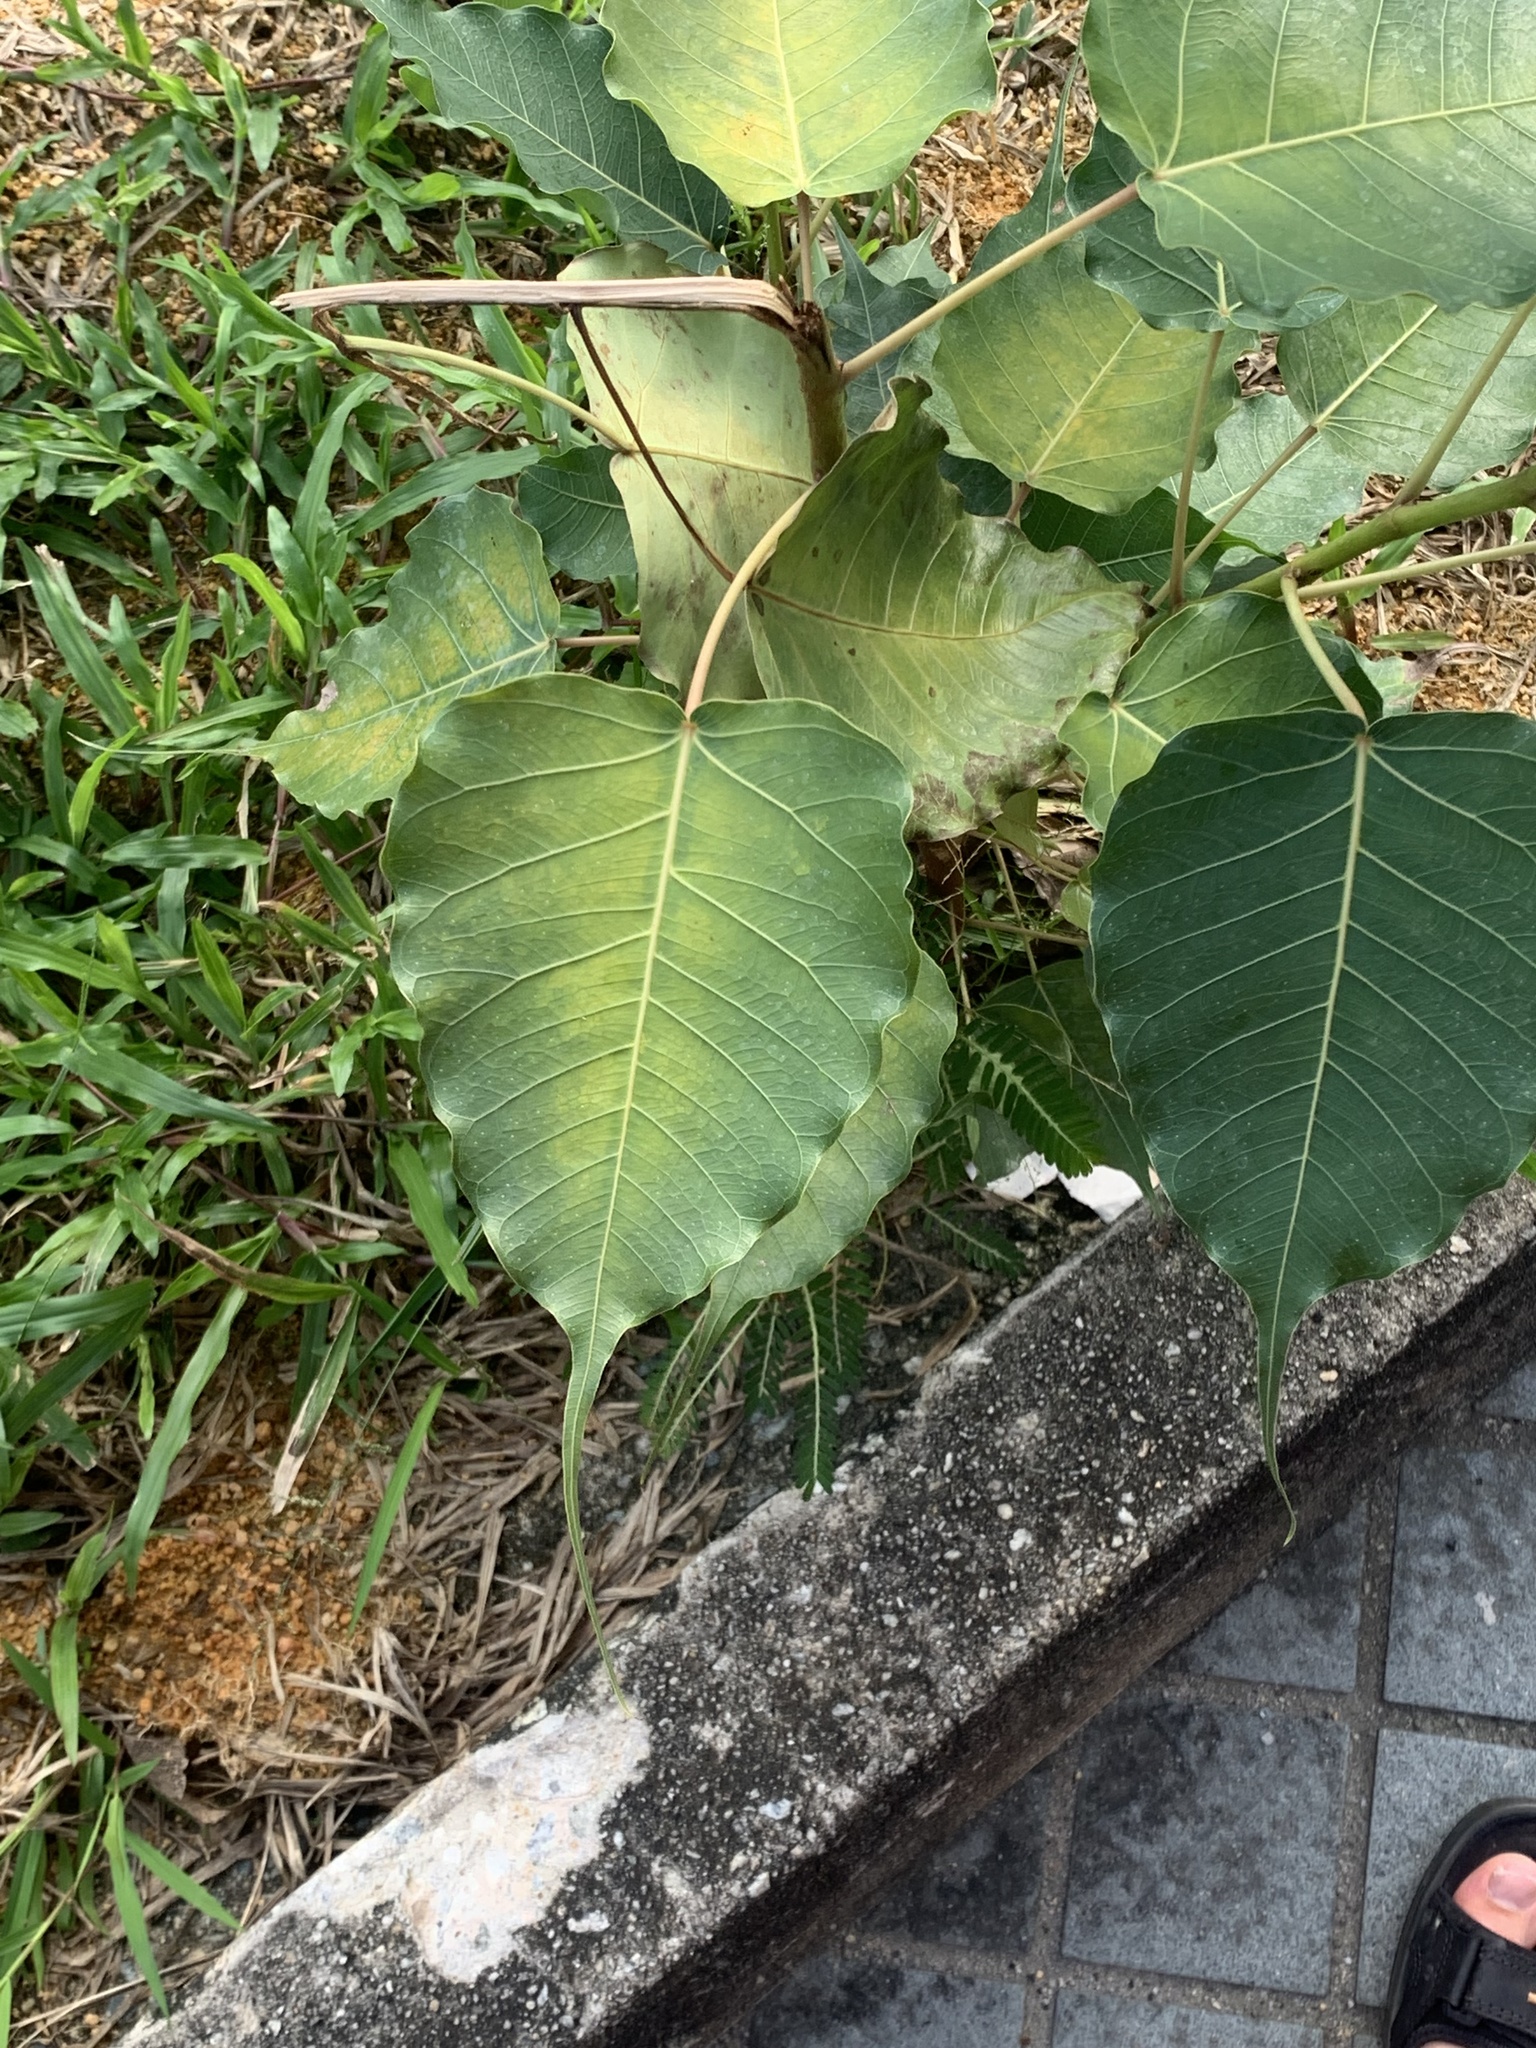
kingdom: Plantae
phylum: Tracheophyta
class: Magnoliopsida
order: Rosales
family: Moraceae
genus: Ficus
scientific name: Ficus religiosa
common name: Bodhi tree
